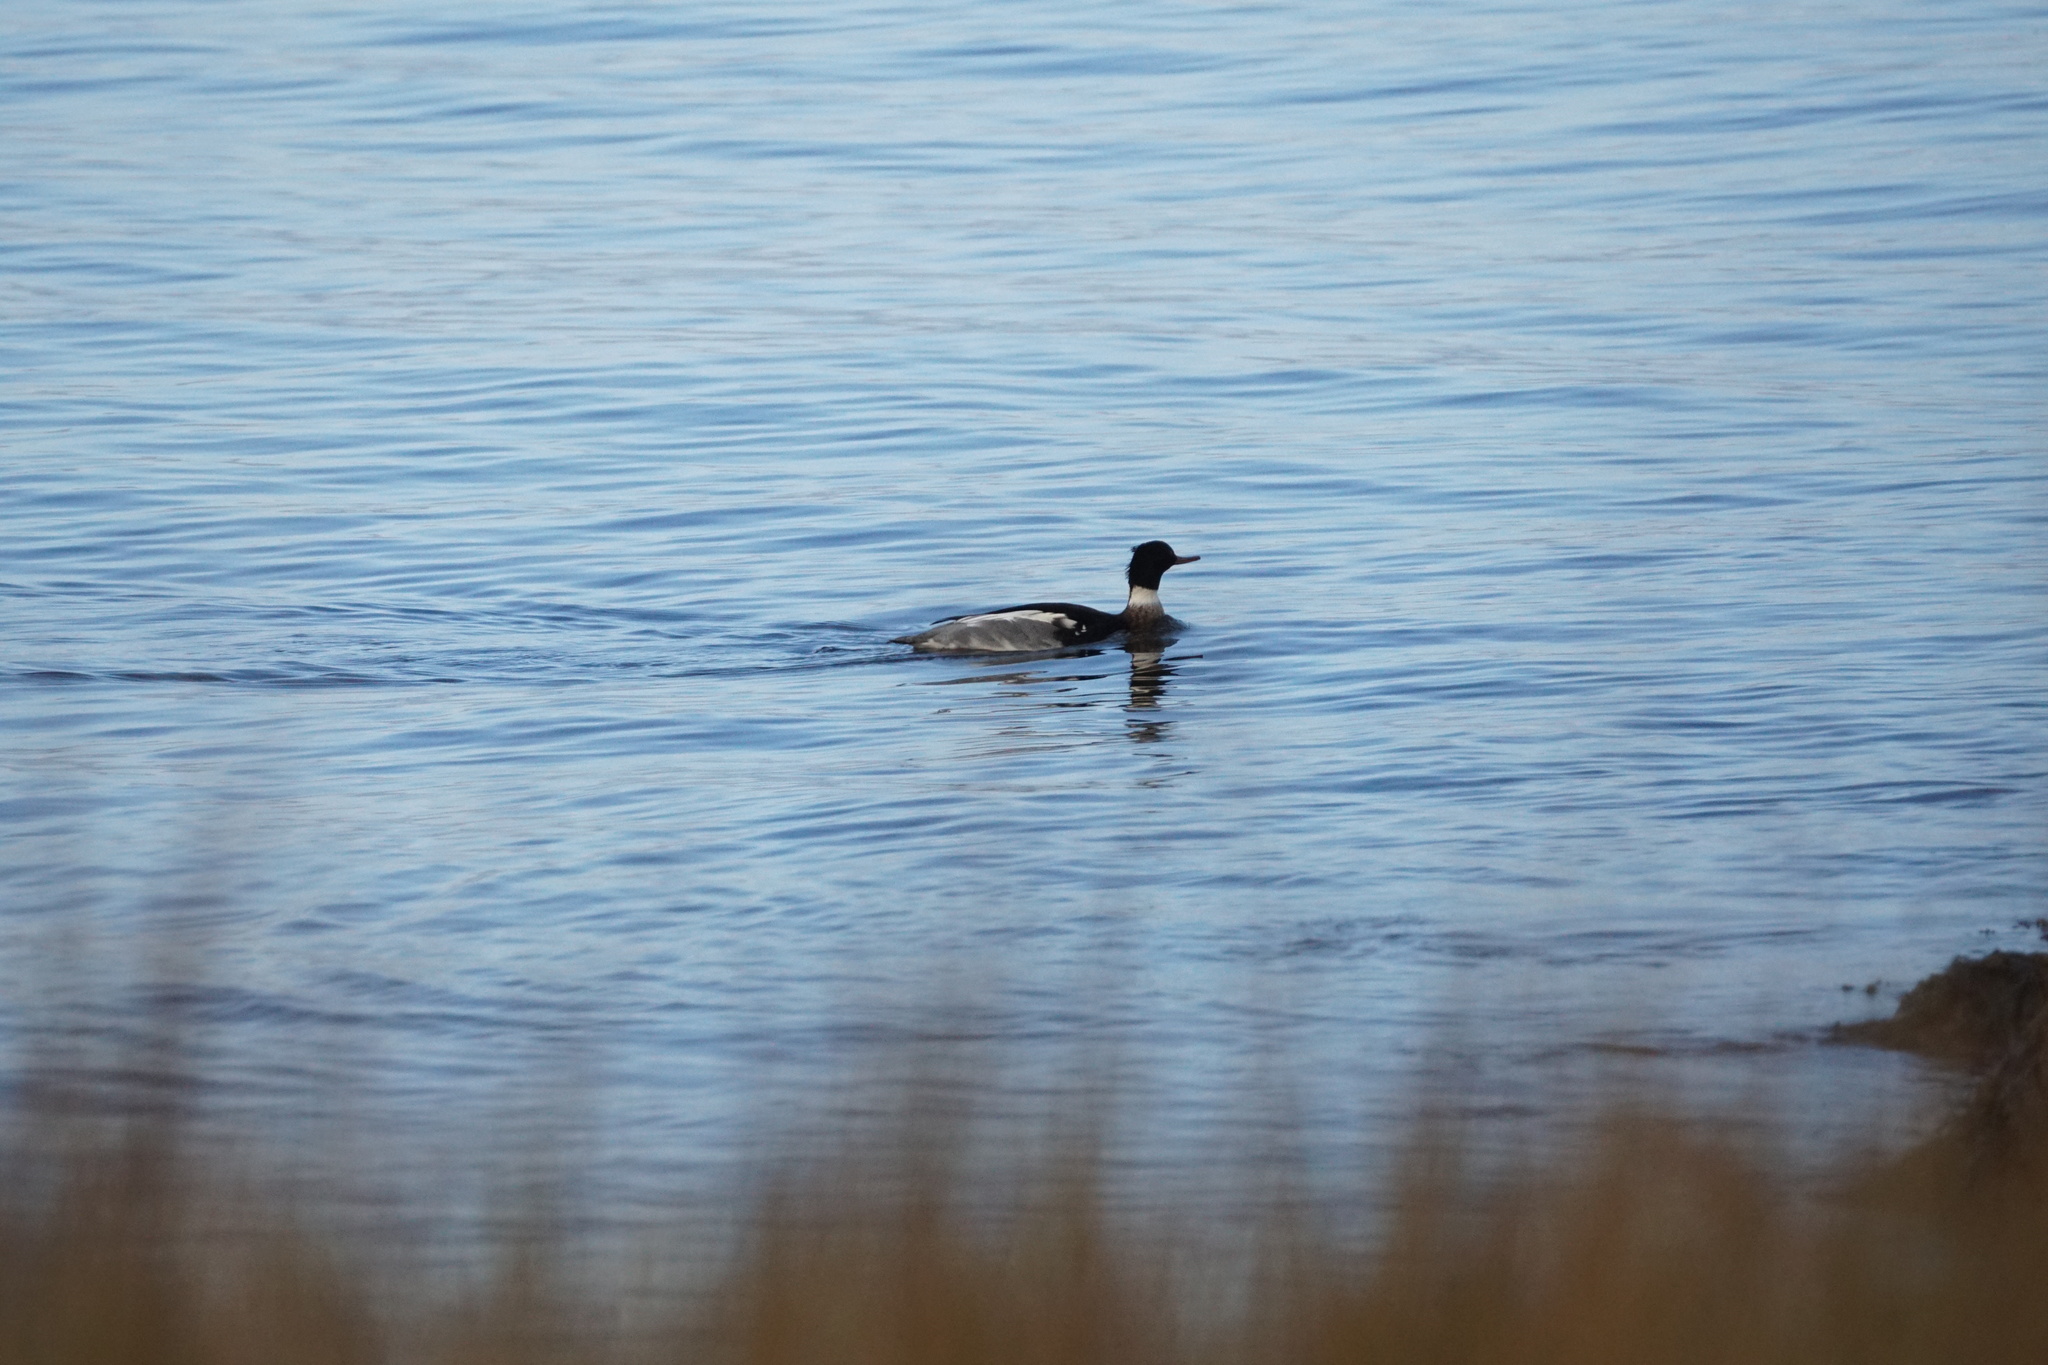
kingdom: Animalia
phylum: Chordata
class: Aves
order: Anseriformes
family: Anatidae
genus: Mergus
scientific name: Mergus serrator
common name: Red-breasted merganser
